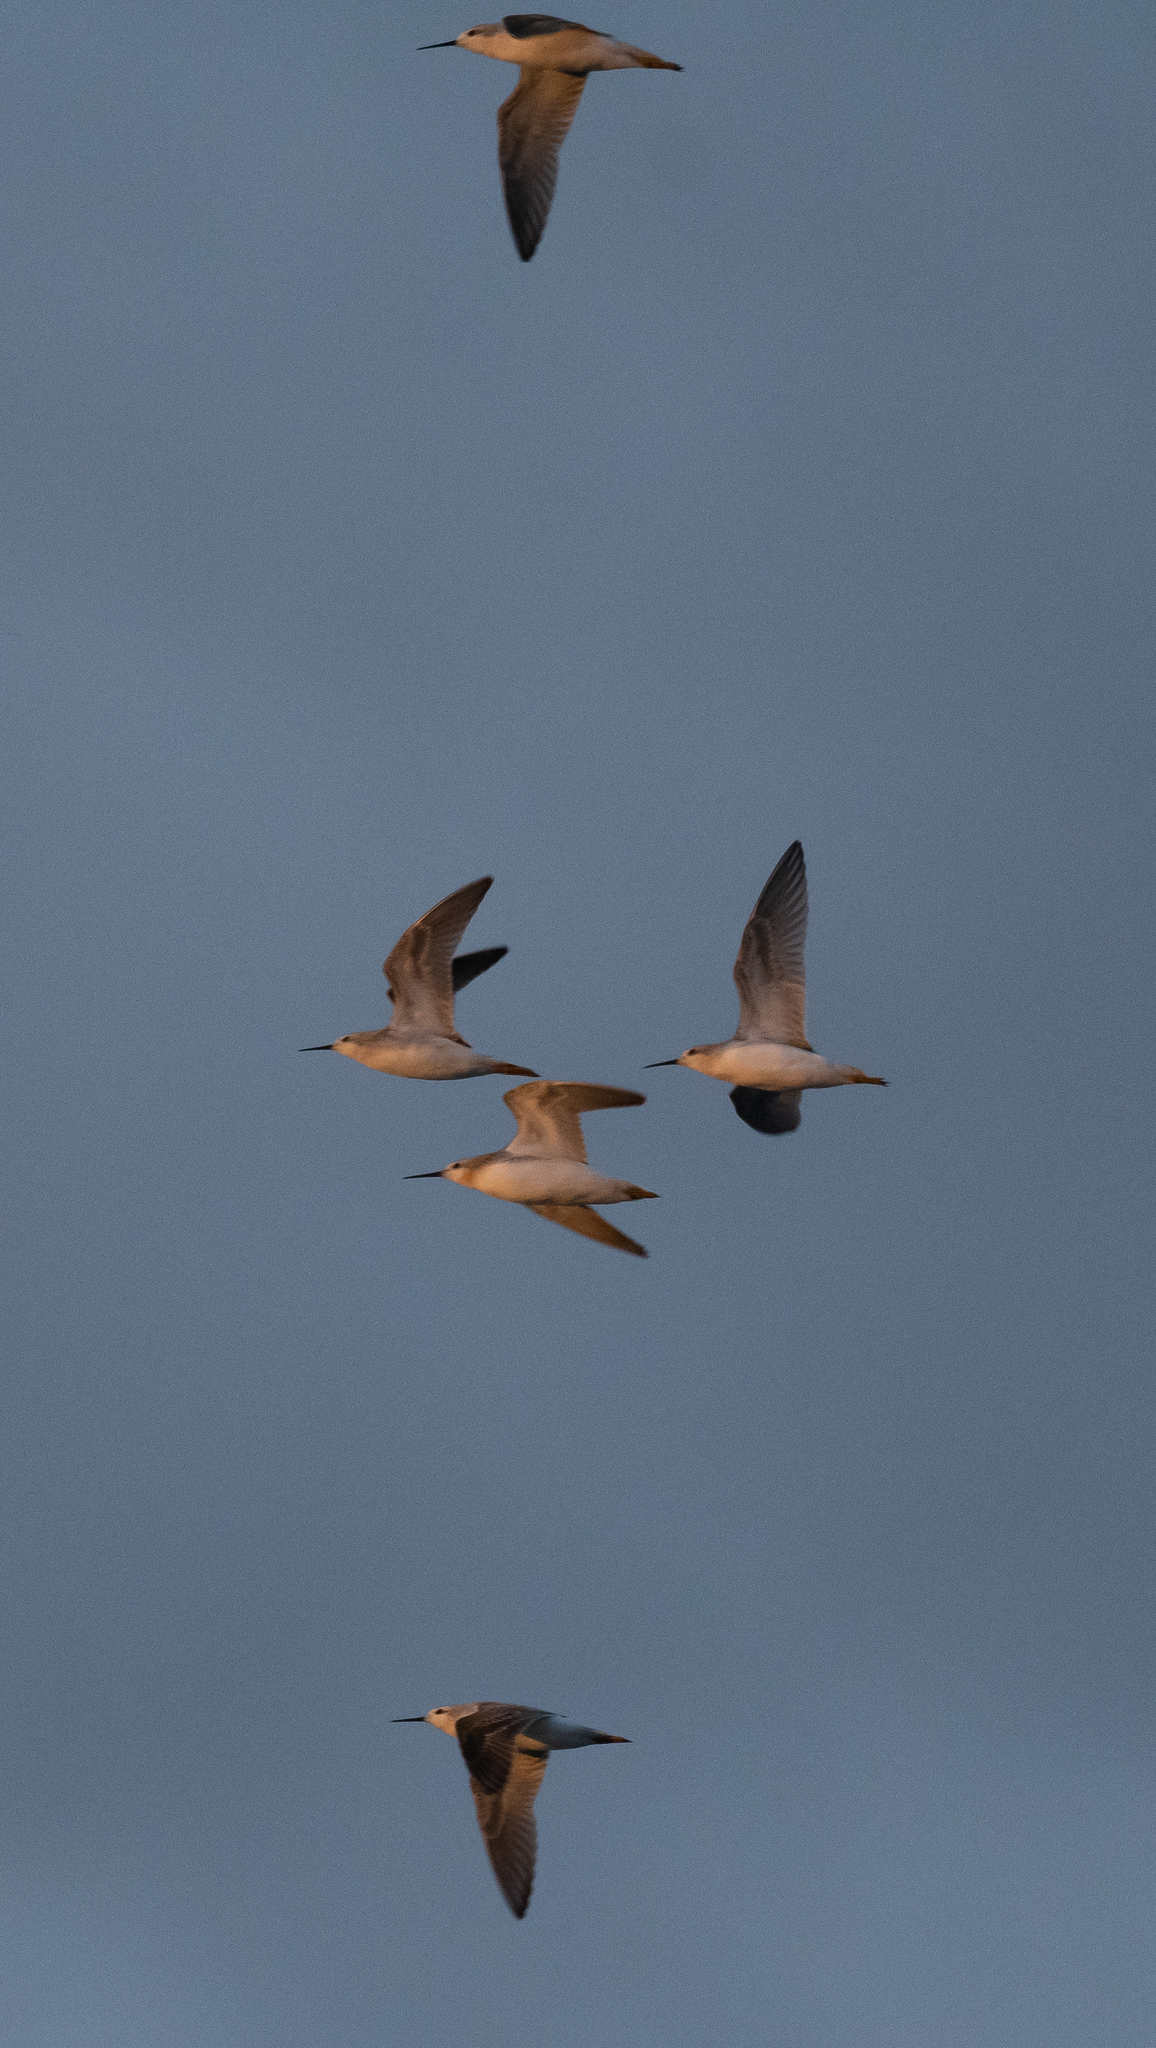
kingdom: Animalia
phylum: Chordata
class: Aves
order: Charadriiformes
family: Scolopacidae
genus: Phalaropus
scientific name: Phalaropus tricolor
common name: Wilson's phalarope
